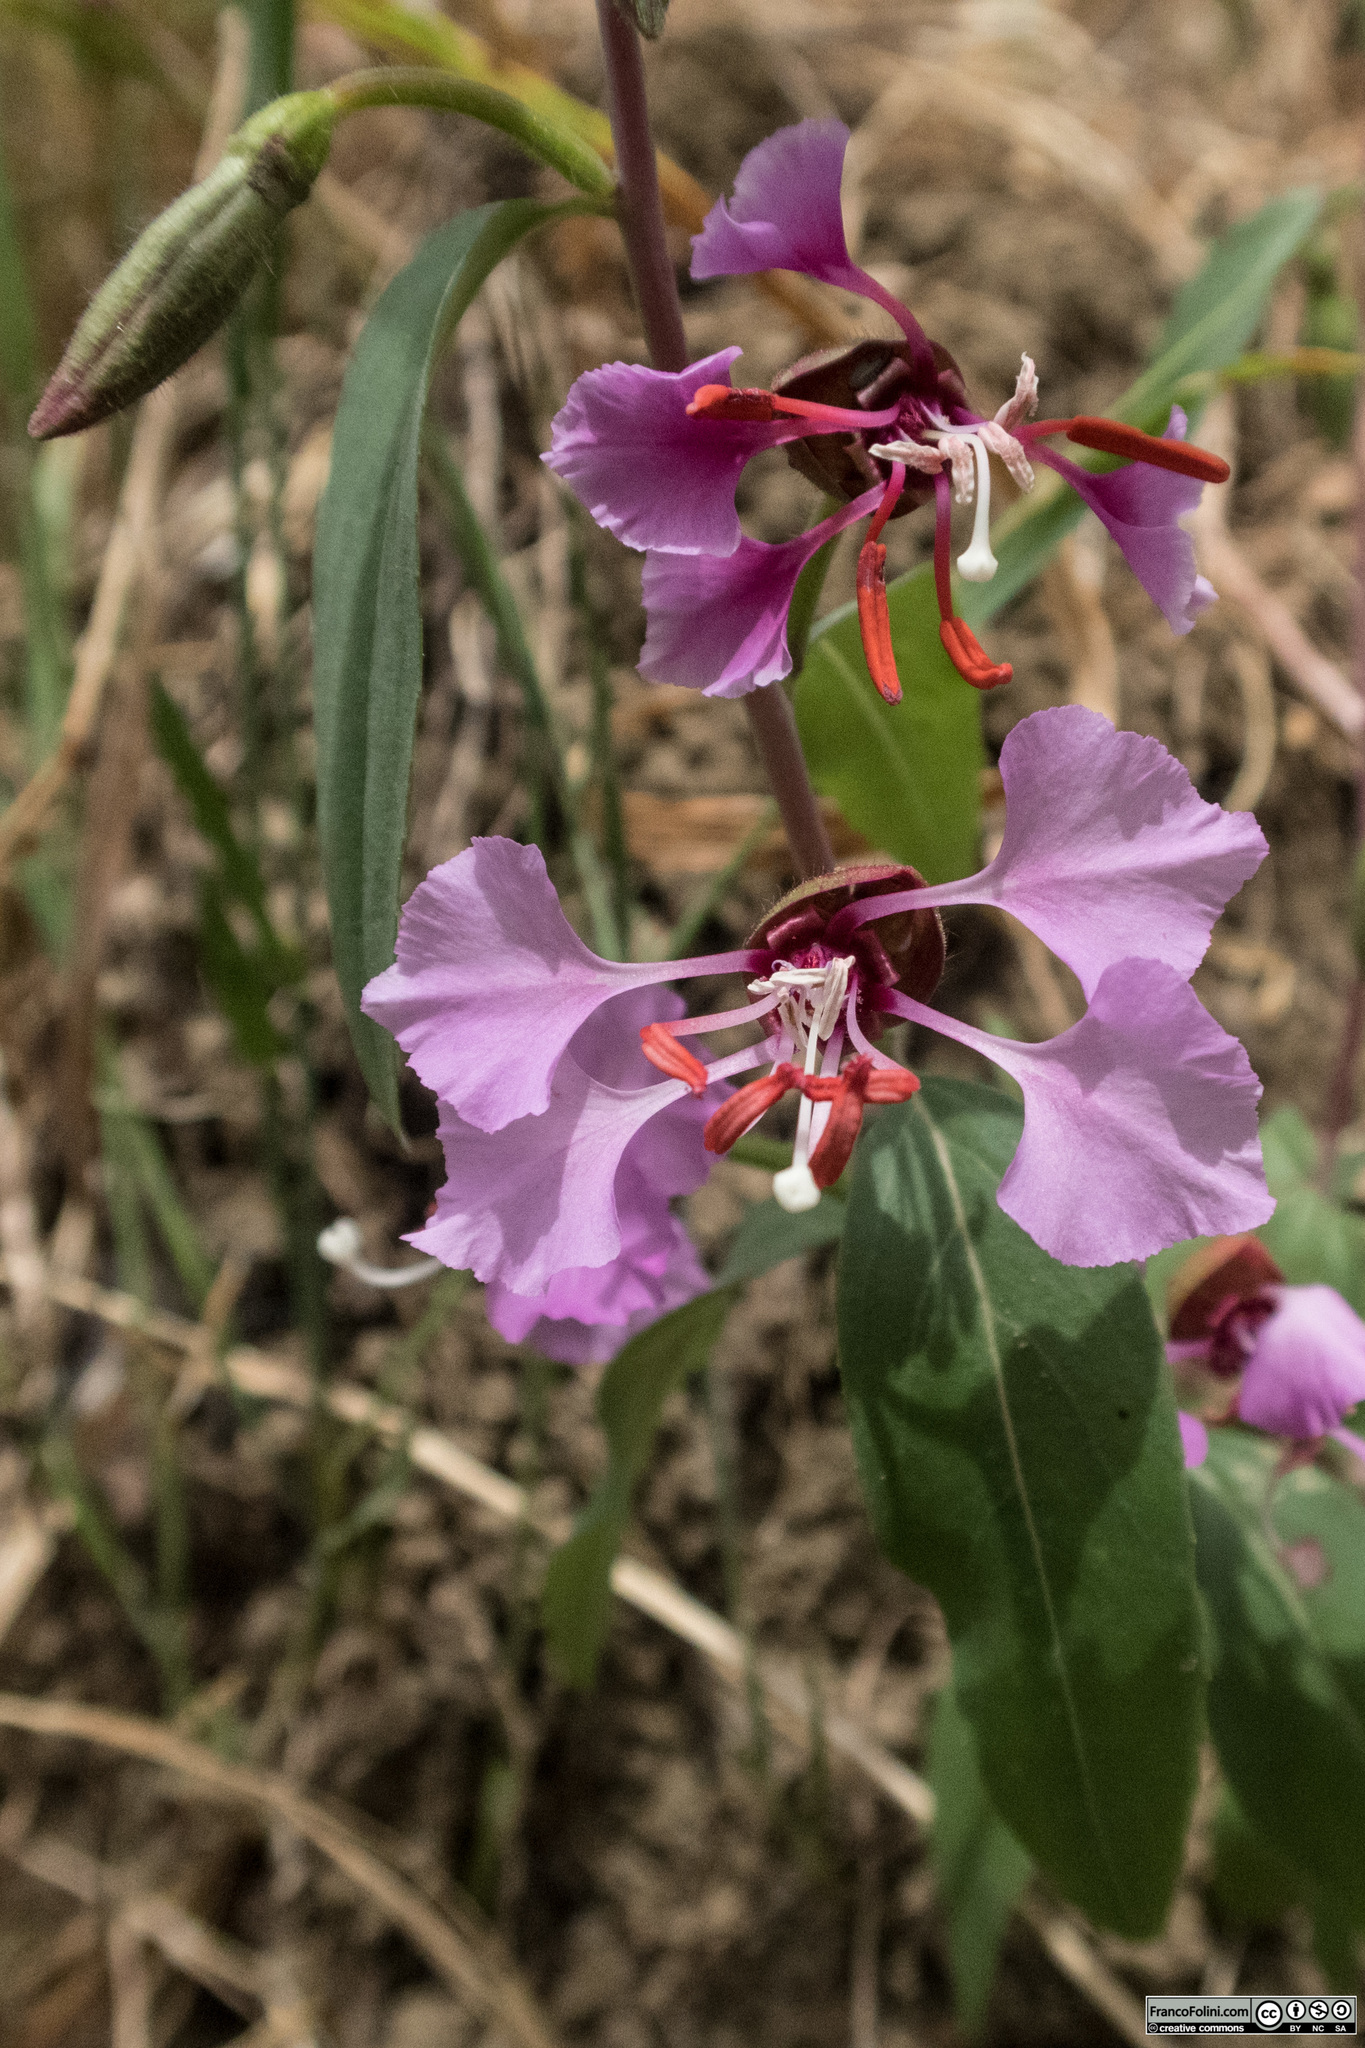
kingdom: Plantae
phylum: Tracheophyta
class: Magnoliopsida
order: Myrtales
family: Onagraceae
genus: Clarkia
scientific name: Clarkia unguiculata
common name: Clarkia
